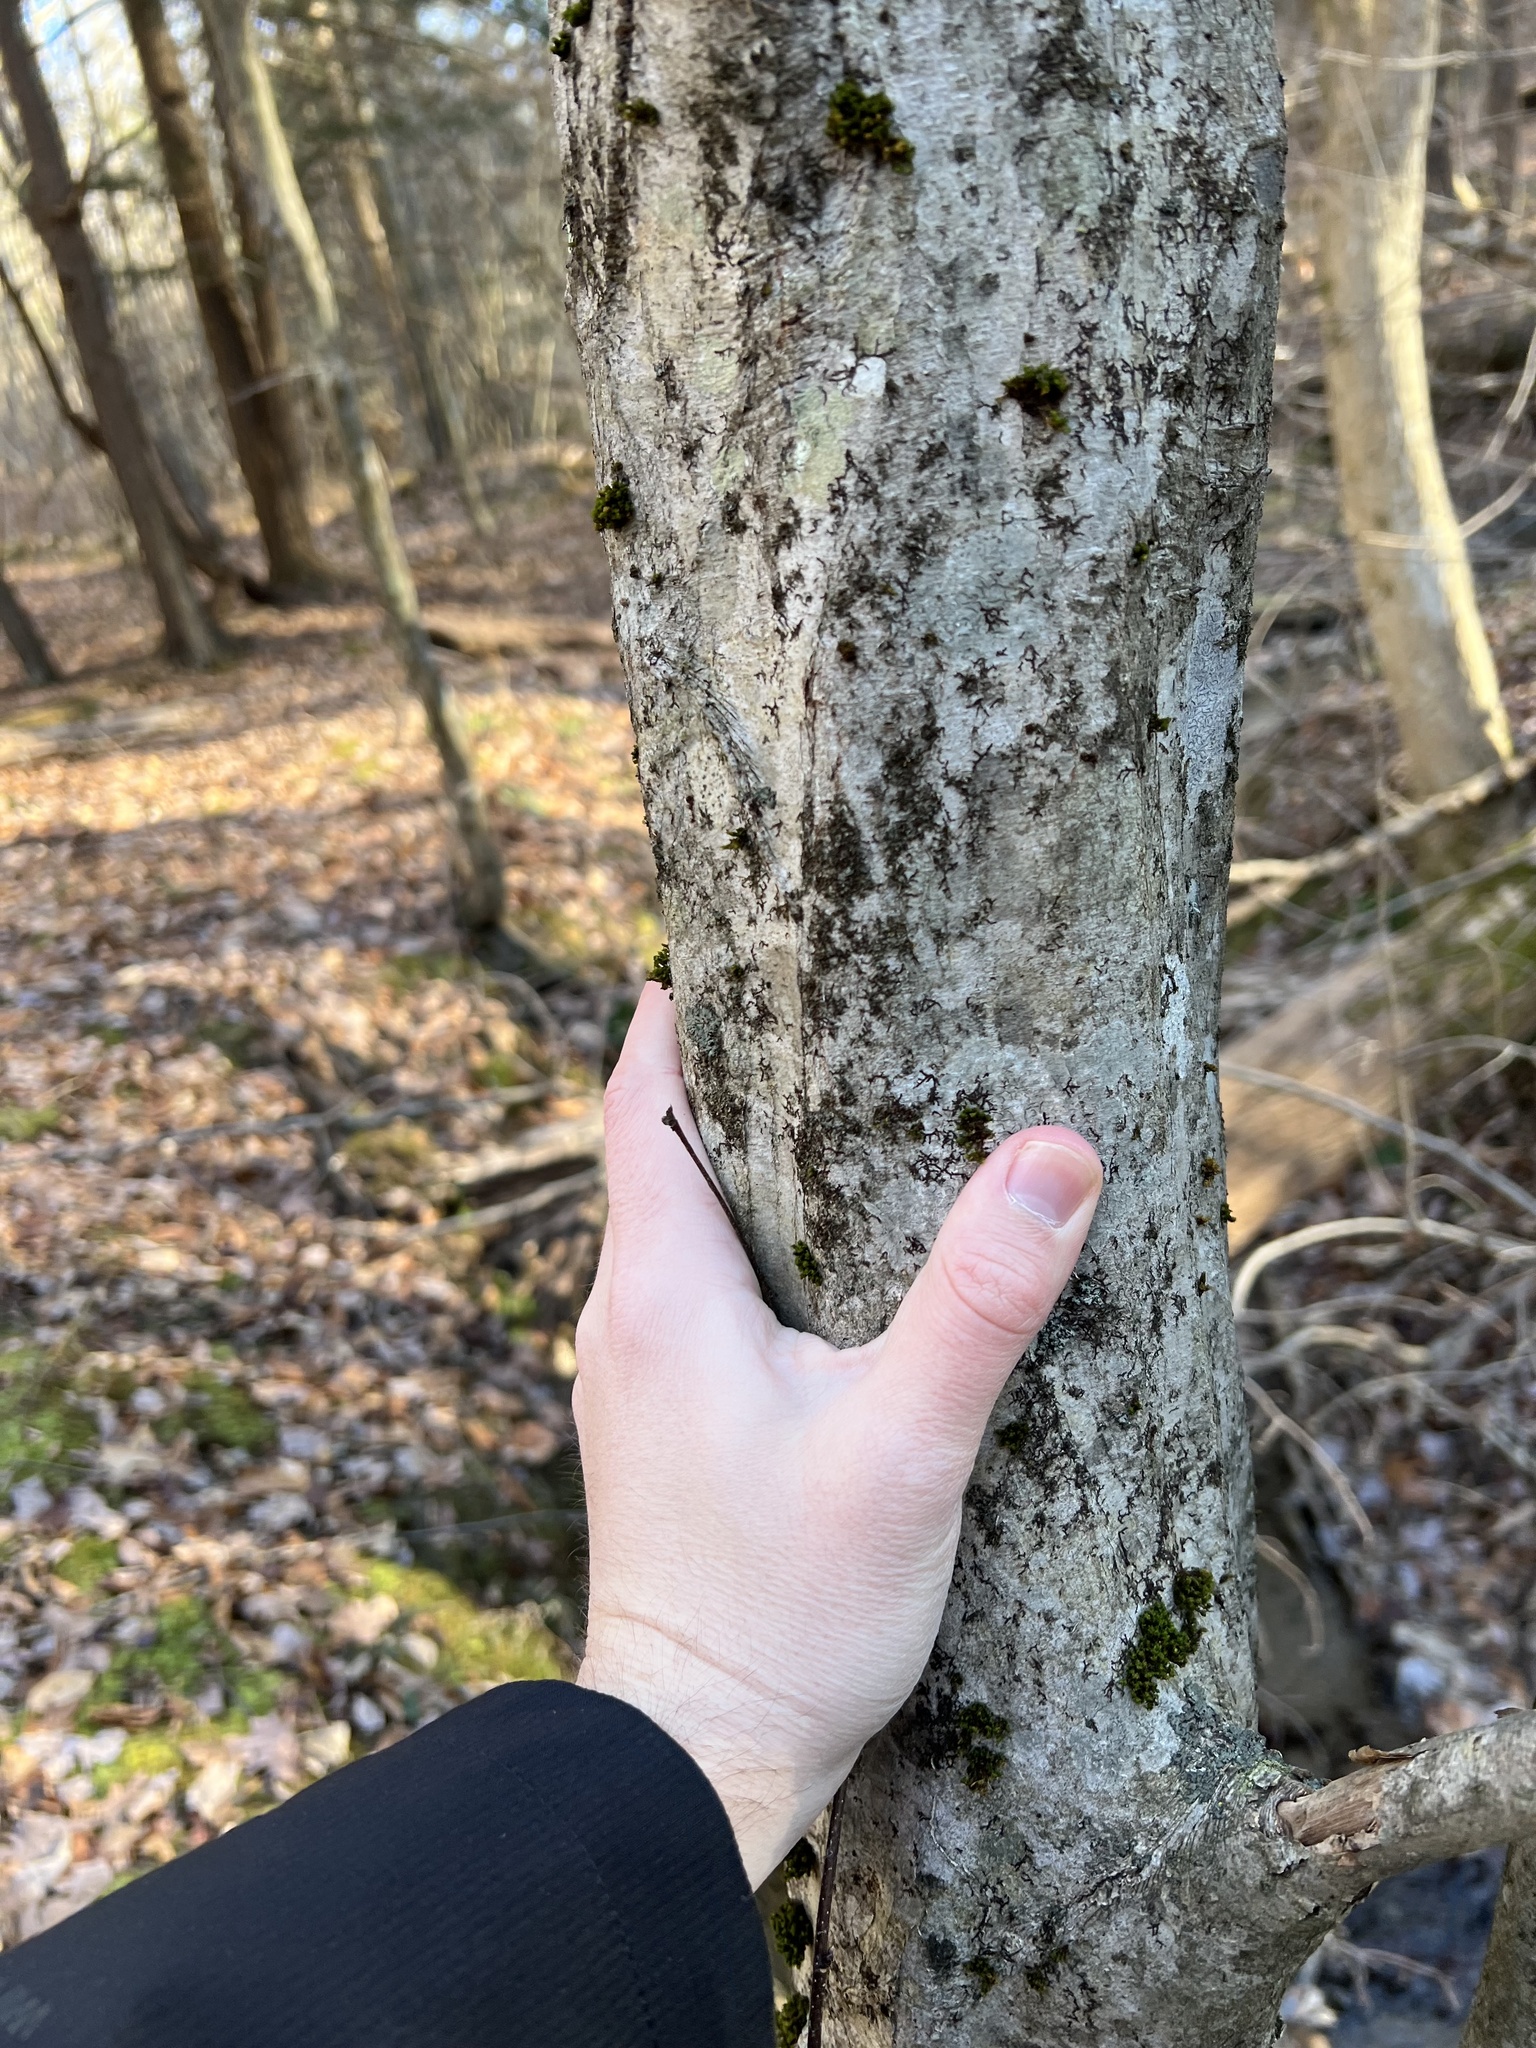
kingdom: Plantae
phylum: Tracheophyta
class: Magnoliopsida
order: Fagales
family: Betulaceae
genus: Carpinus
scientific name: Carpinus caroliniana
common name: American hornbeam
